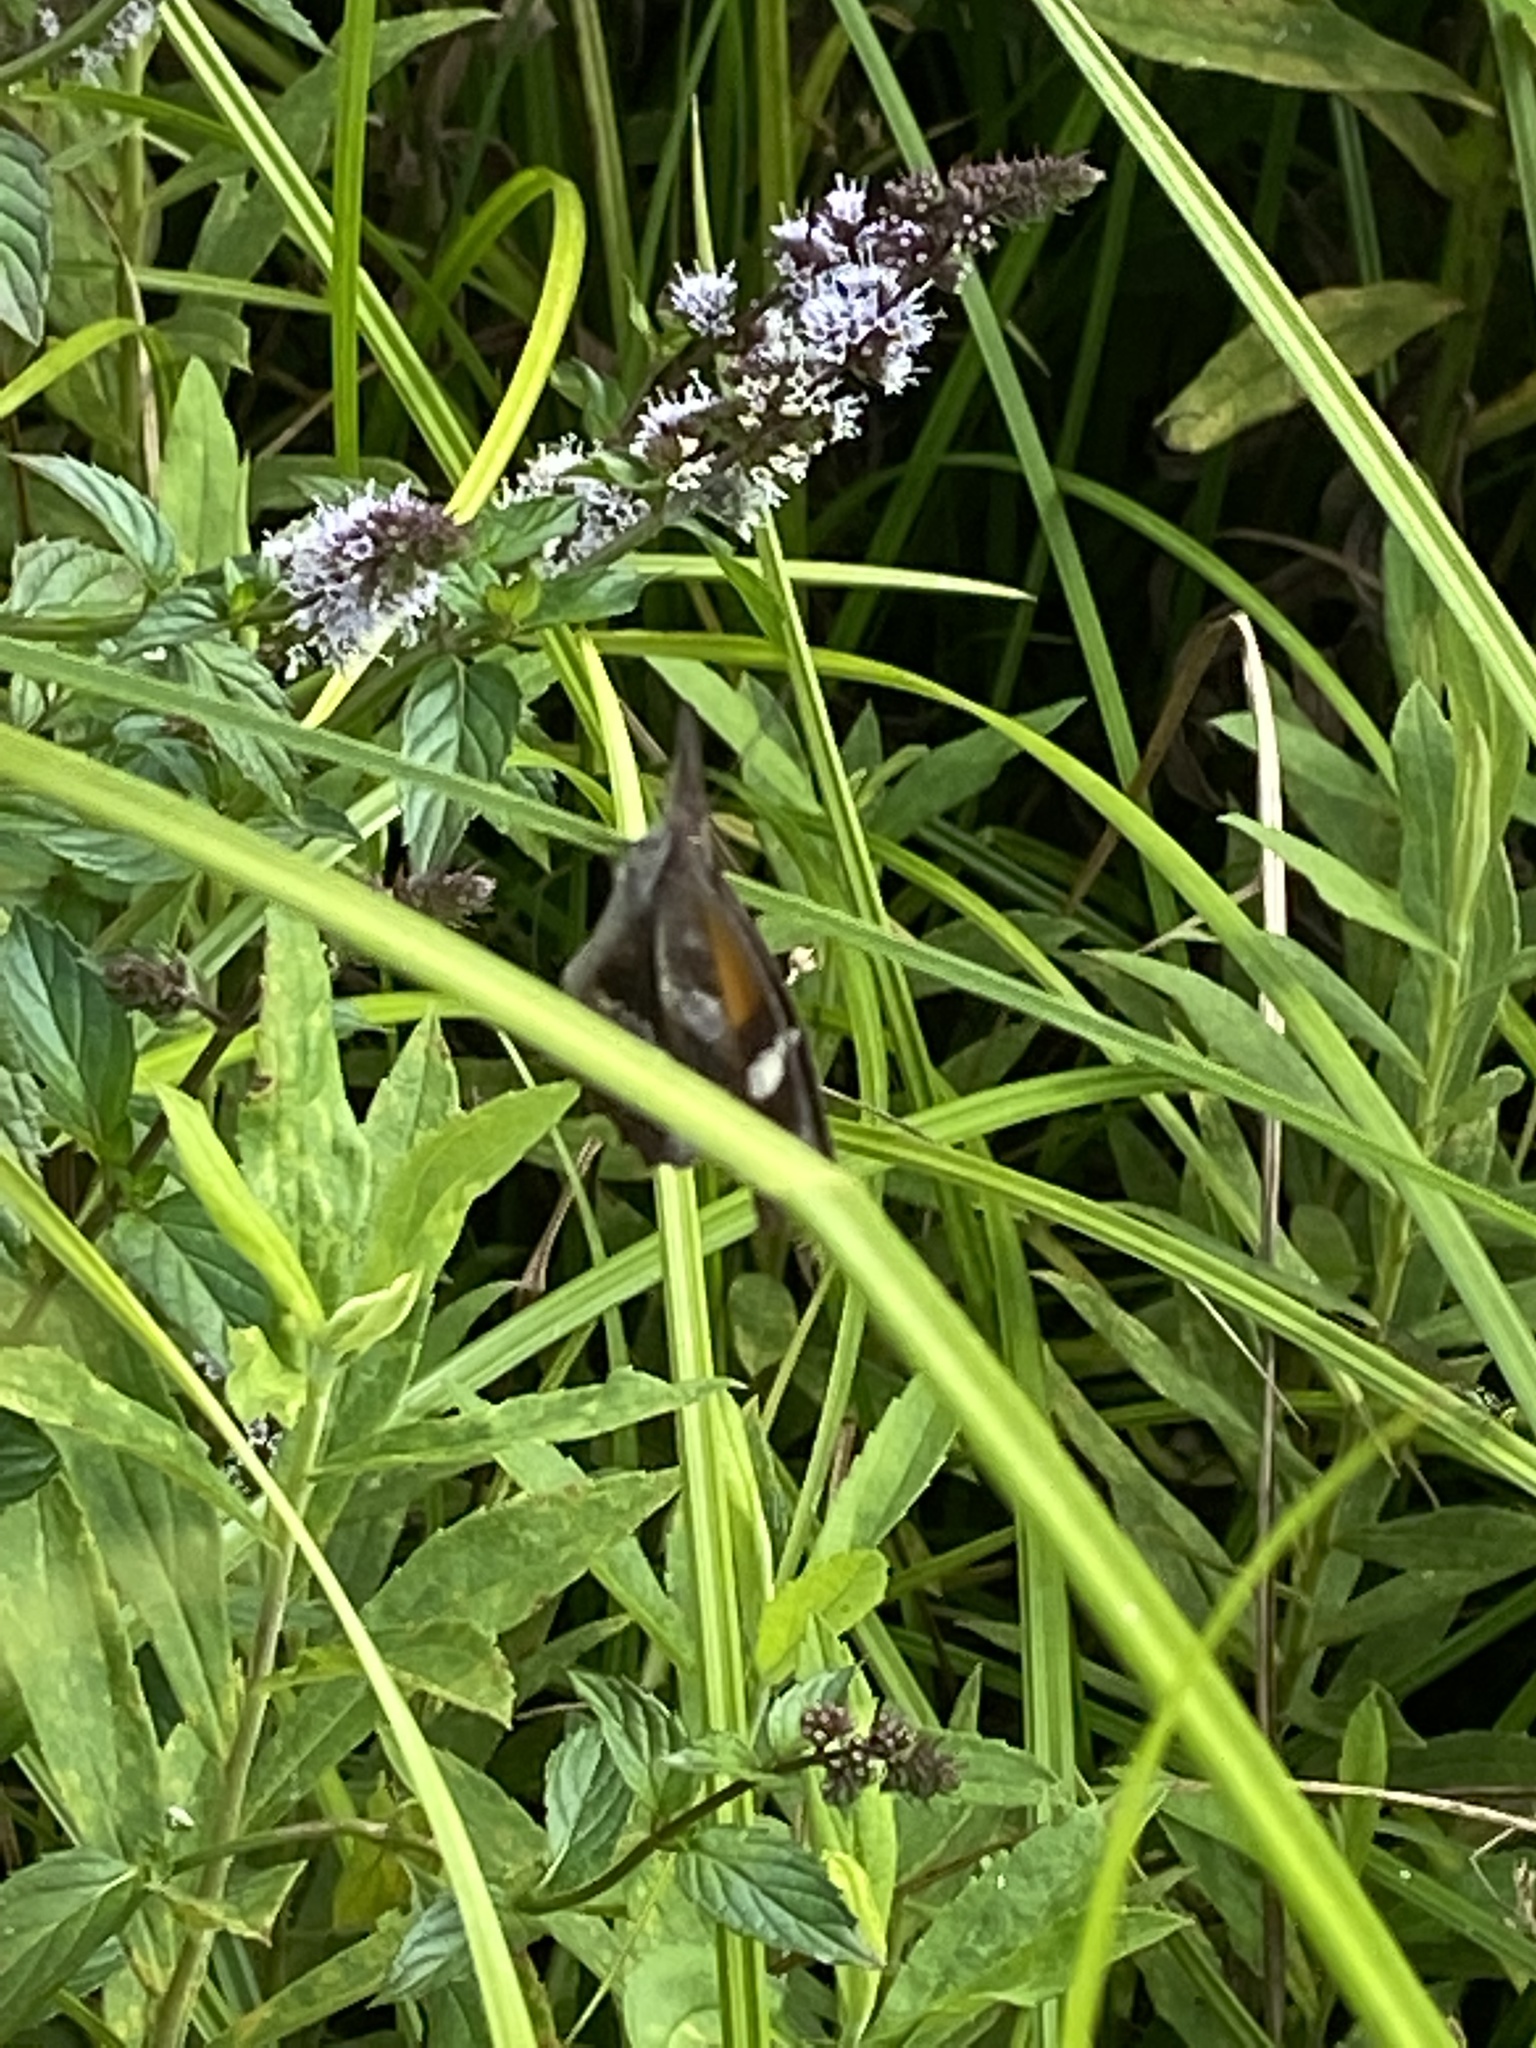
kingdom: Animalia
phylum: Arthropoda
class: Insecta
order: Lepidoptera
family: Nymphalidae
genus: Libytheana
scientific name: Libytheana carinenta
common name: American snout
